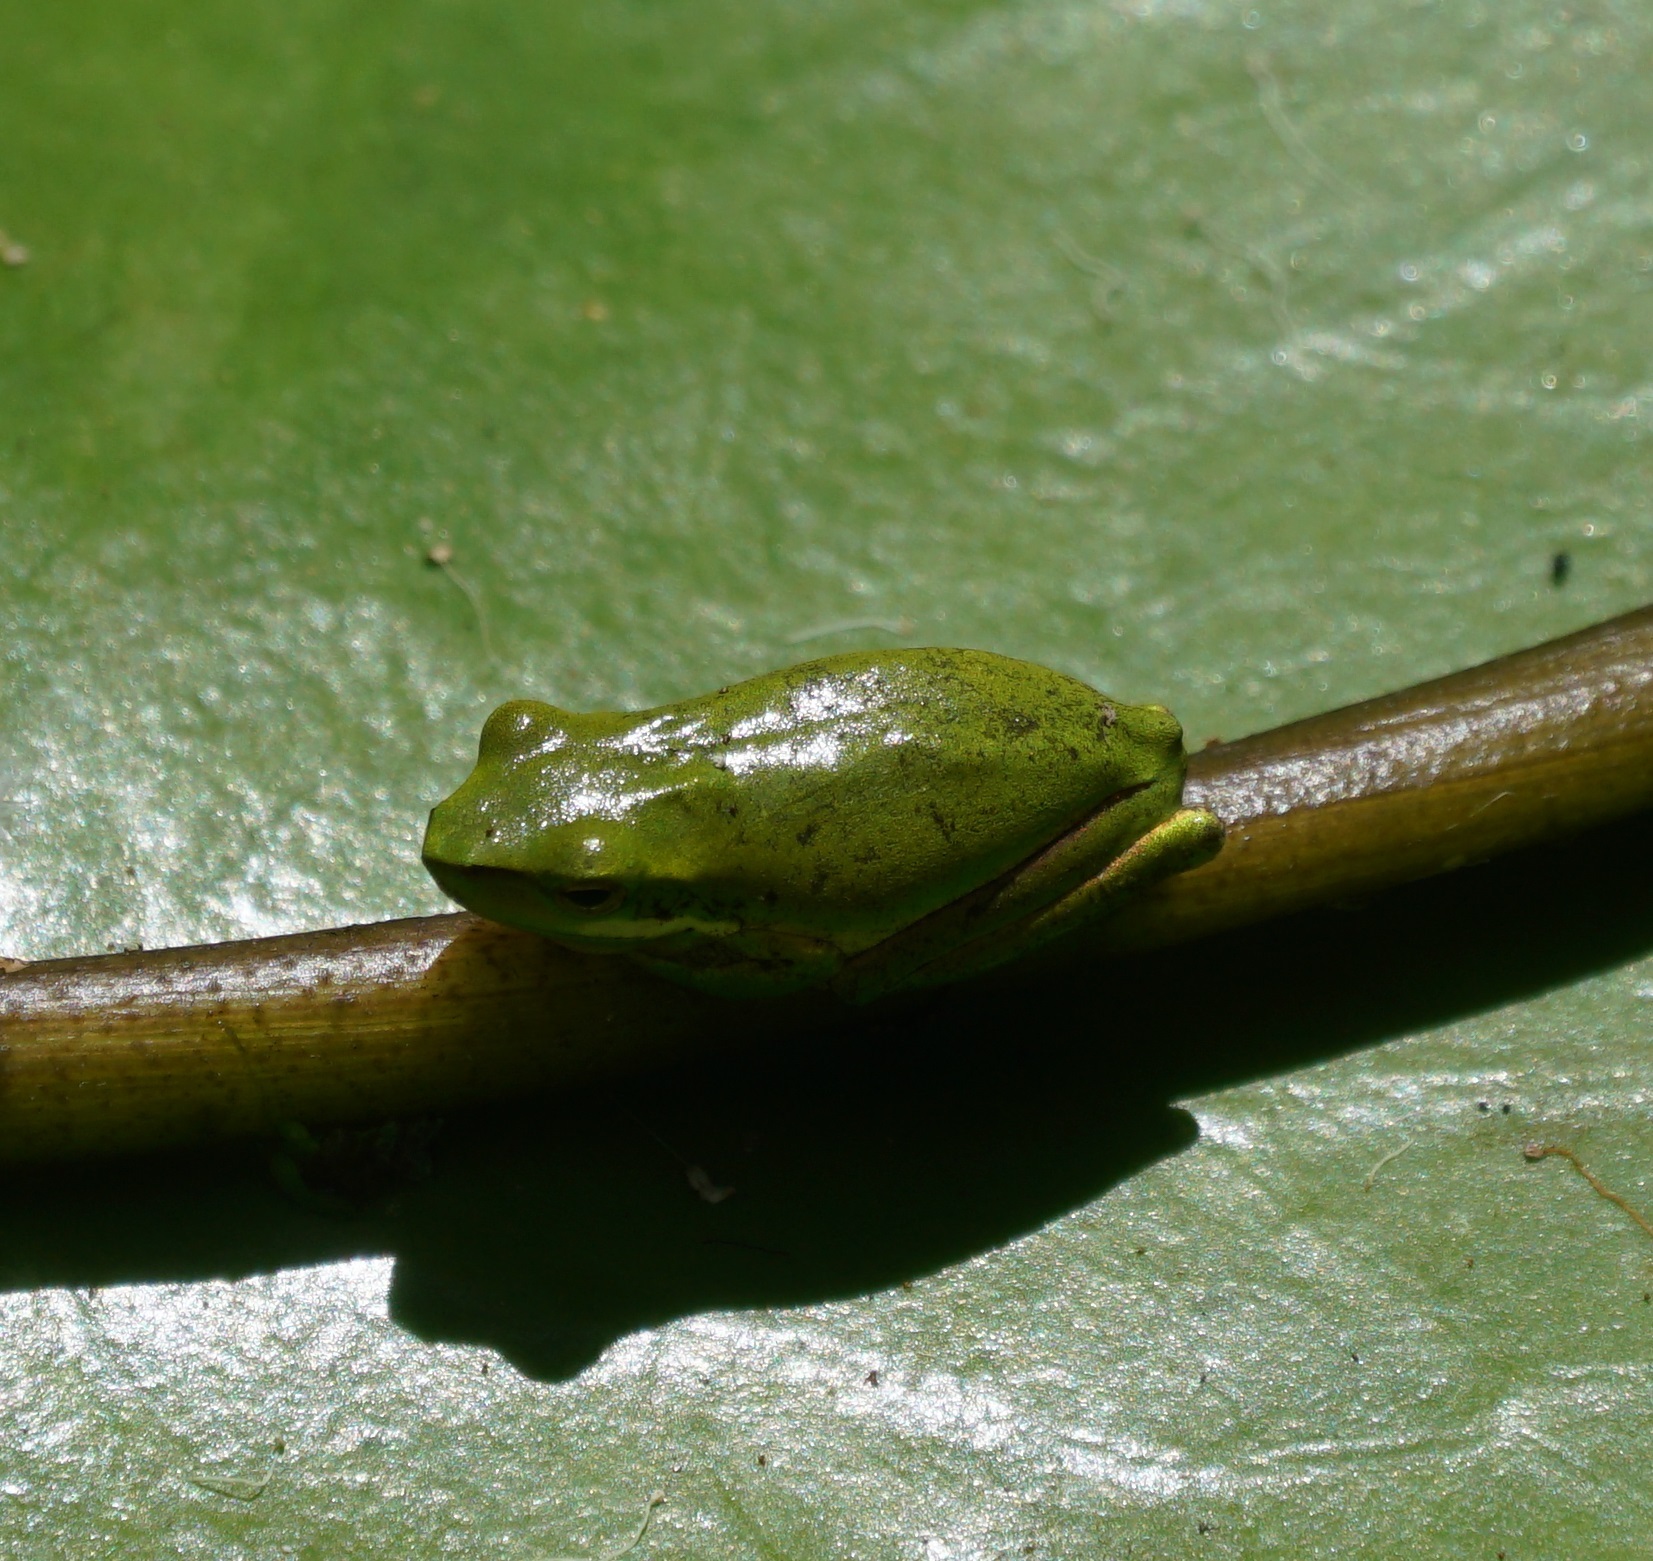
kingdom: Animalia
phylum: Chordata
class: Amphibia
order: Anura
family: Pelodryadidae
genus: Litoria
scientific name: Litoria fallax
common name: Eastern dwarf treefrog
